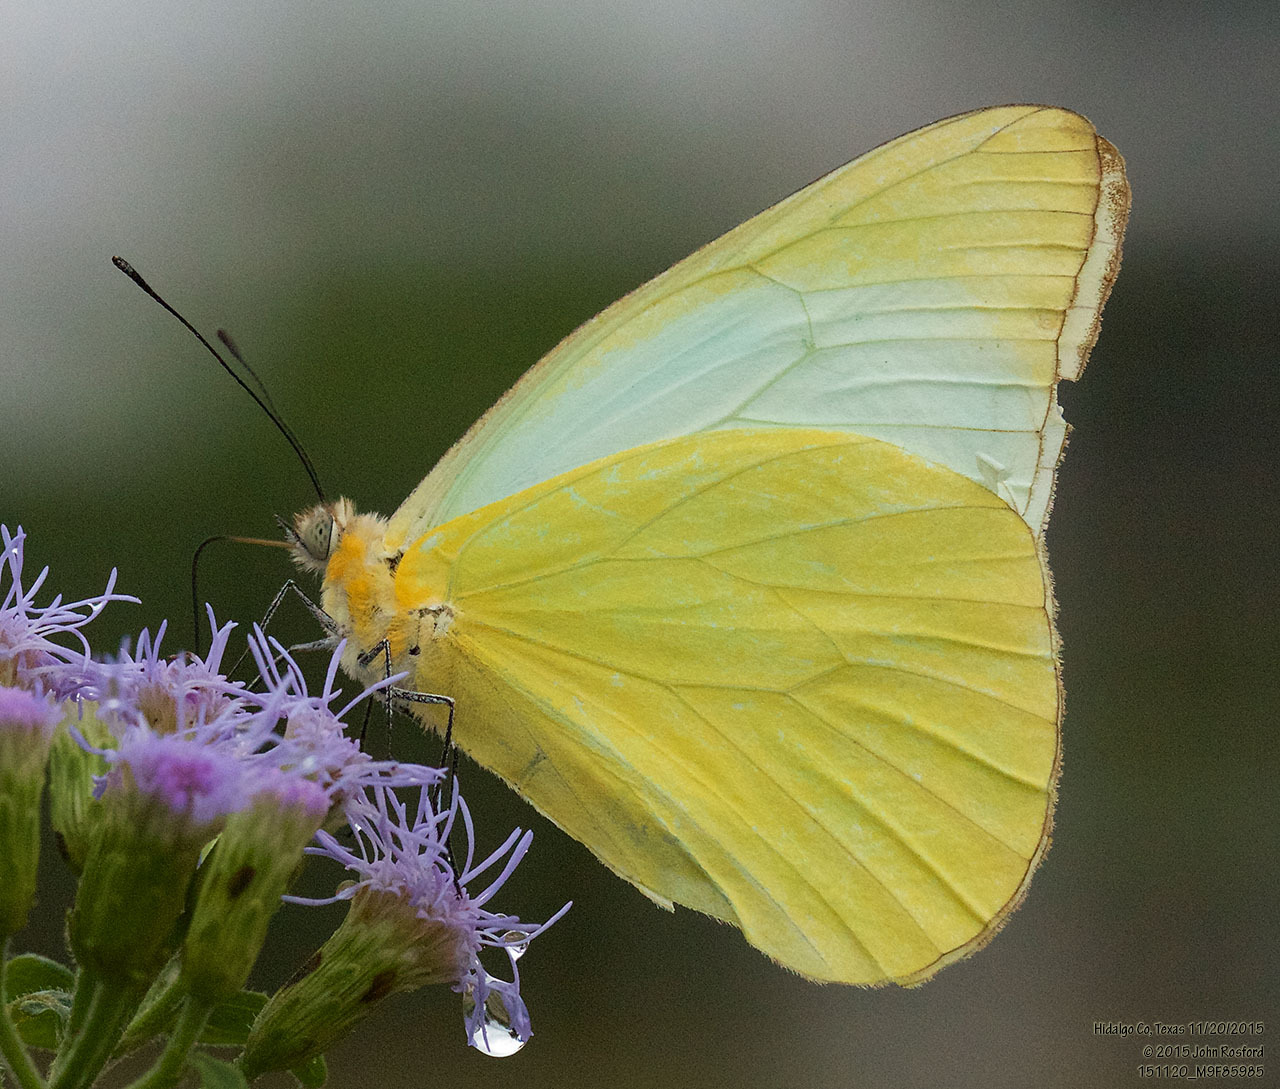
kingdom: Animalia
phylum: Arthropoda
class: Insecta
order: Lepidoptera
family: Pieridae
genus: Melete
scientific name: Melete lycimnia
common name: Common melwhite
